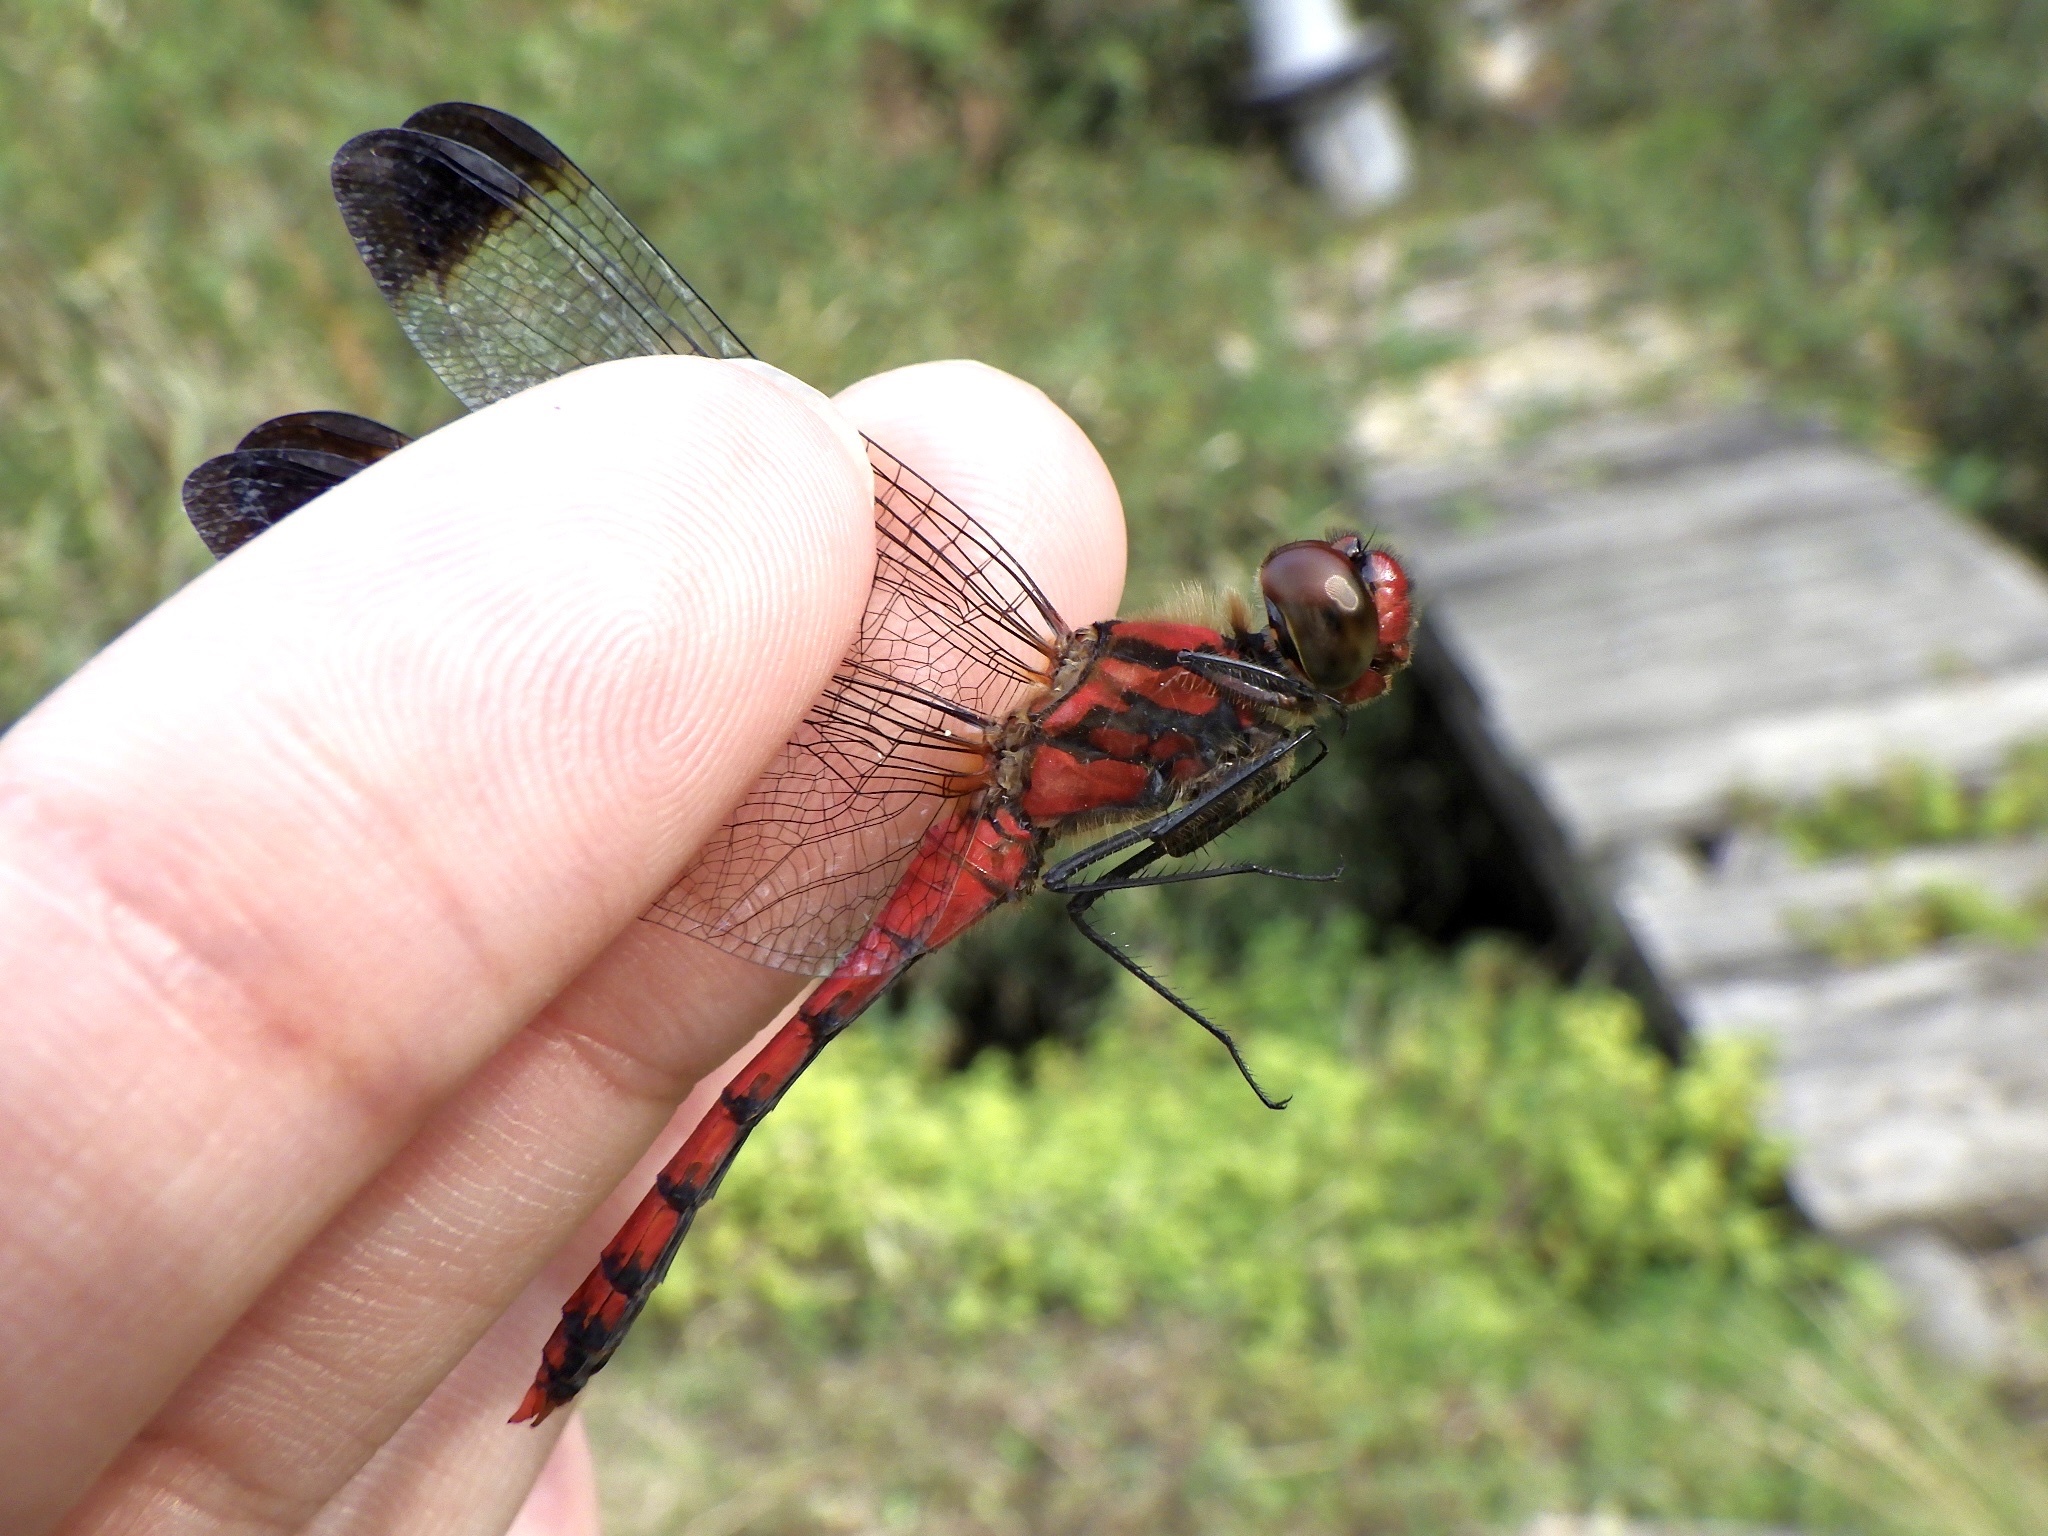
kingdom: Animalia
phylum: Arthropoda
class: Insecta
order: Odonata
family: Libellulidae
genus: Sympetrum
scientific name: Sympetrum baccha
